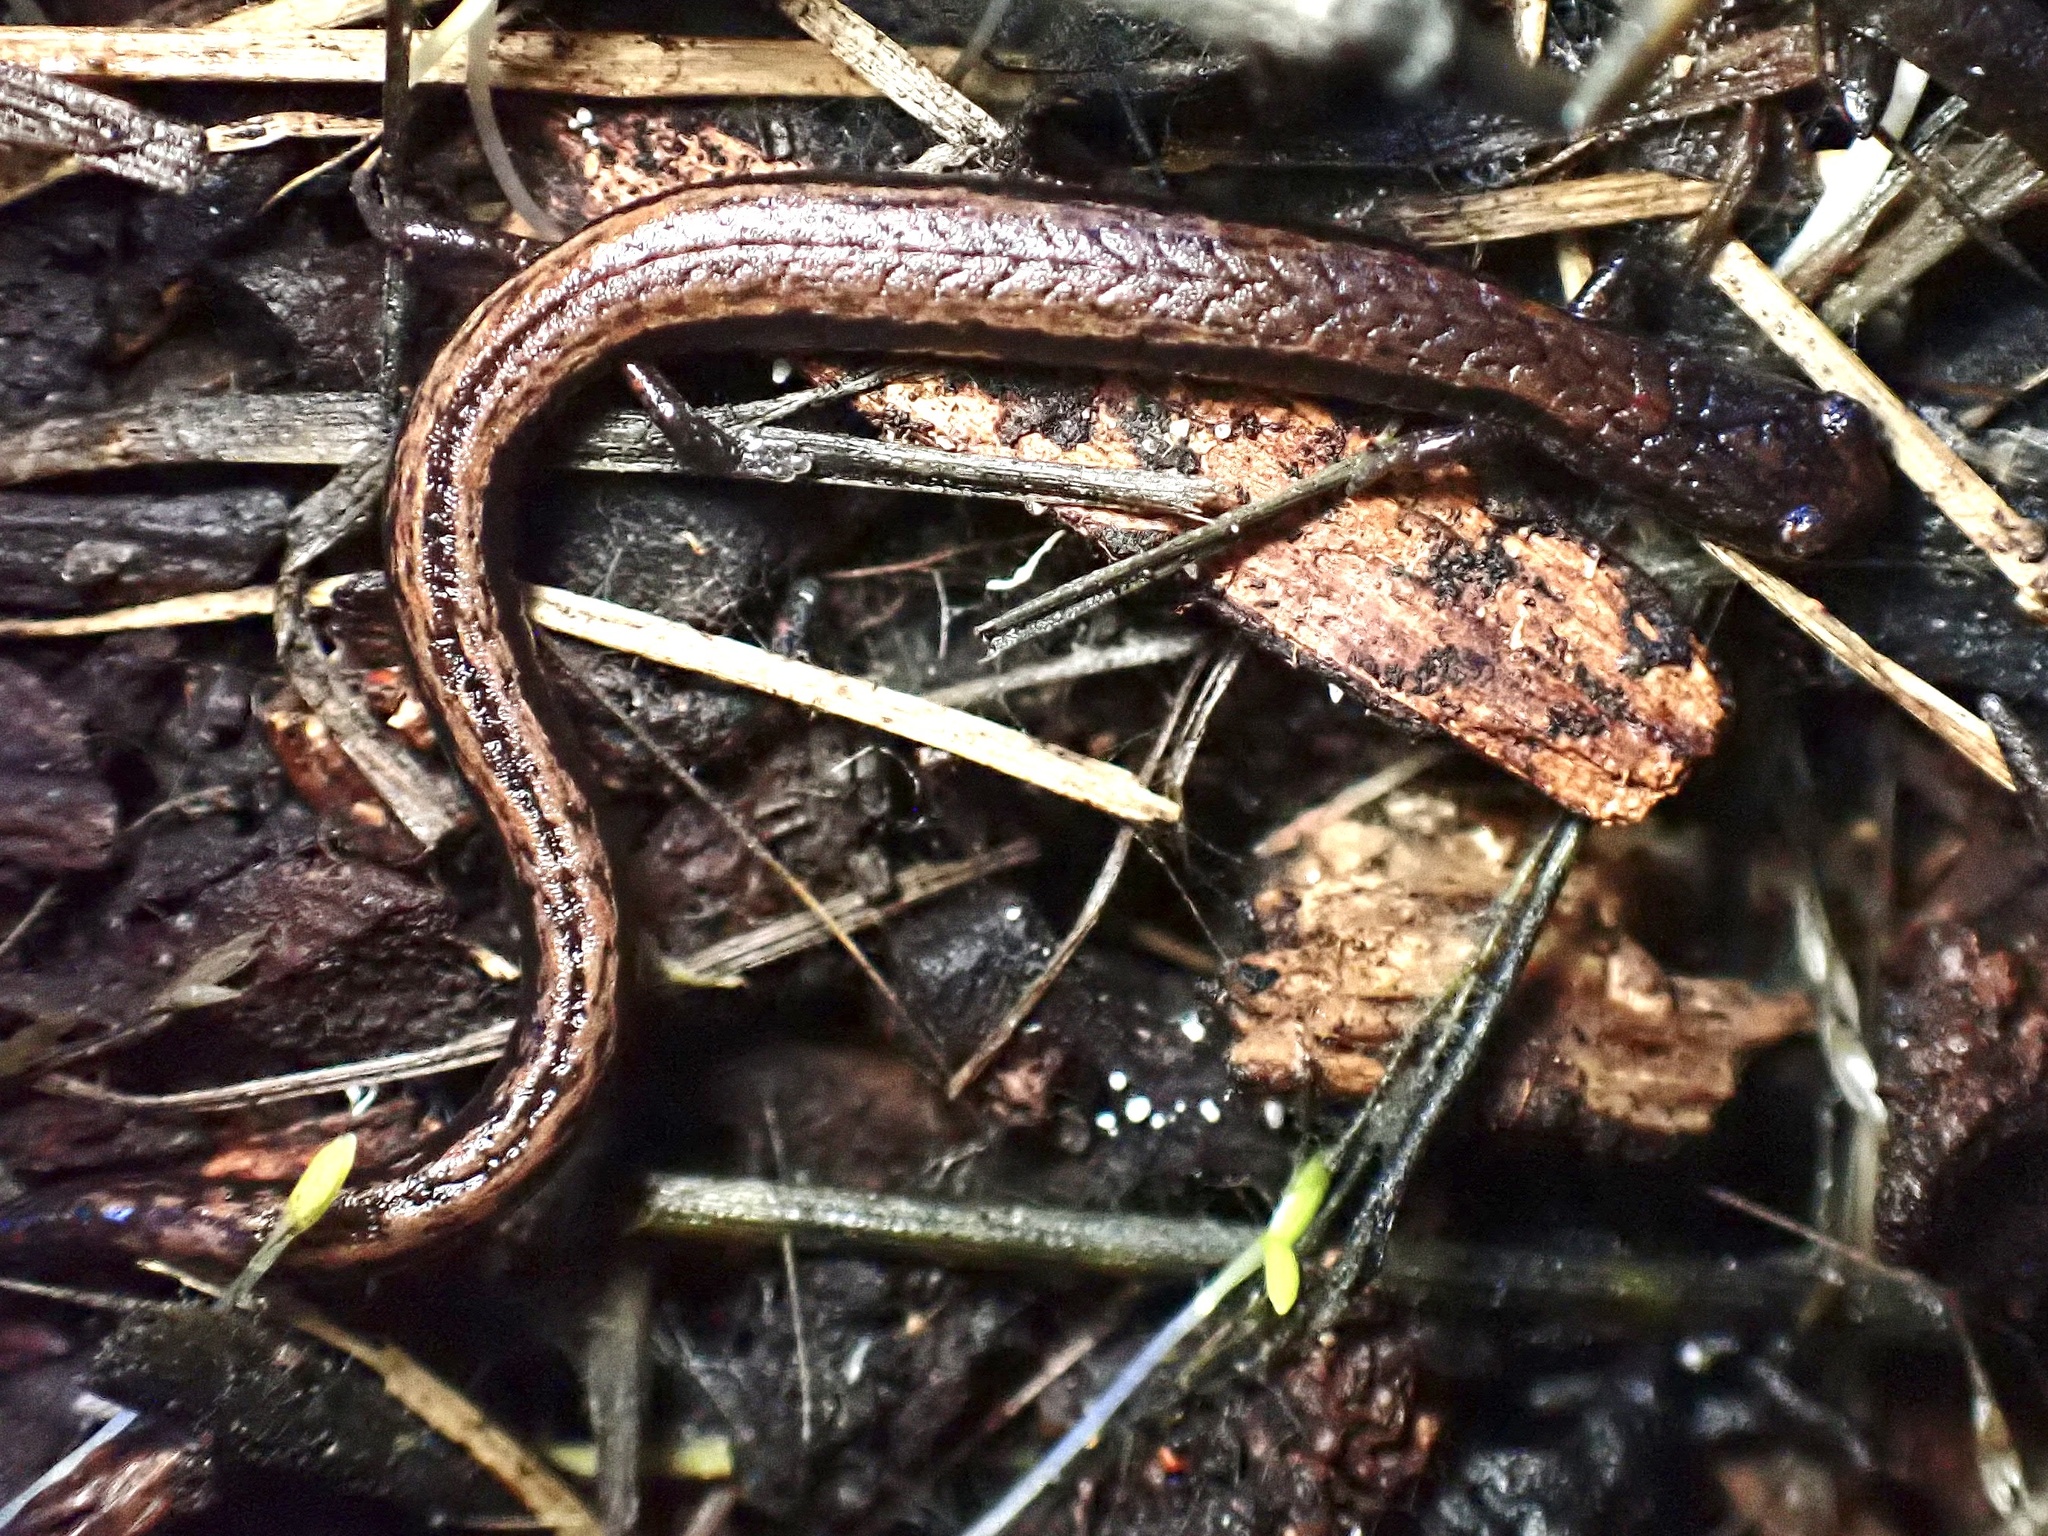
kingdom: Animalia
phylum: Chordata
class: Amphibia
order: Caudata
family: Plethodontidae
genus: Batrachoseps
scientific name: Batrachoseps attenuatus
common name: California slender salamander
